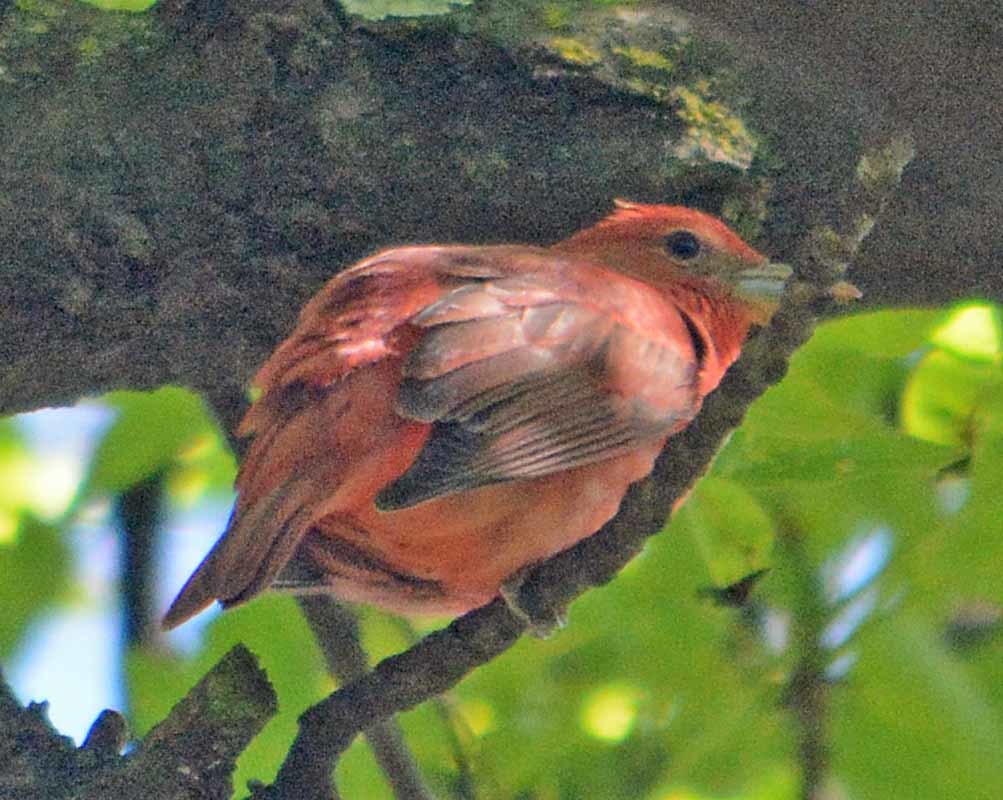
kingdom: Animalia
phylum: Chordata
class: Aves
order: Passeriformes
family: Cardinalidae
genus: Piranga
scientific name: Piranga rubra
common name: Summer tanager
